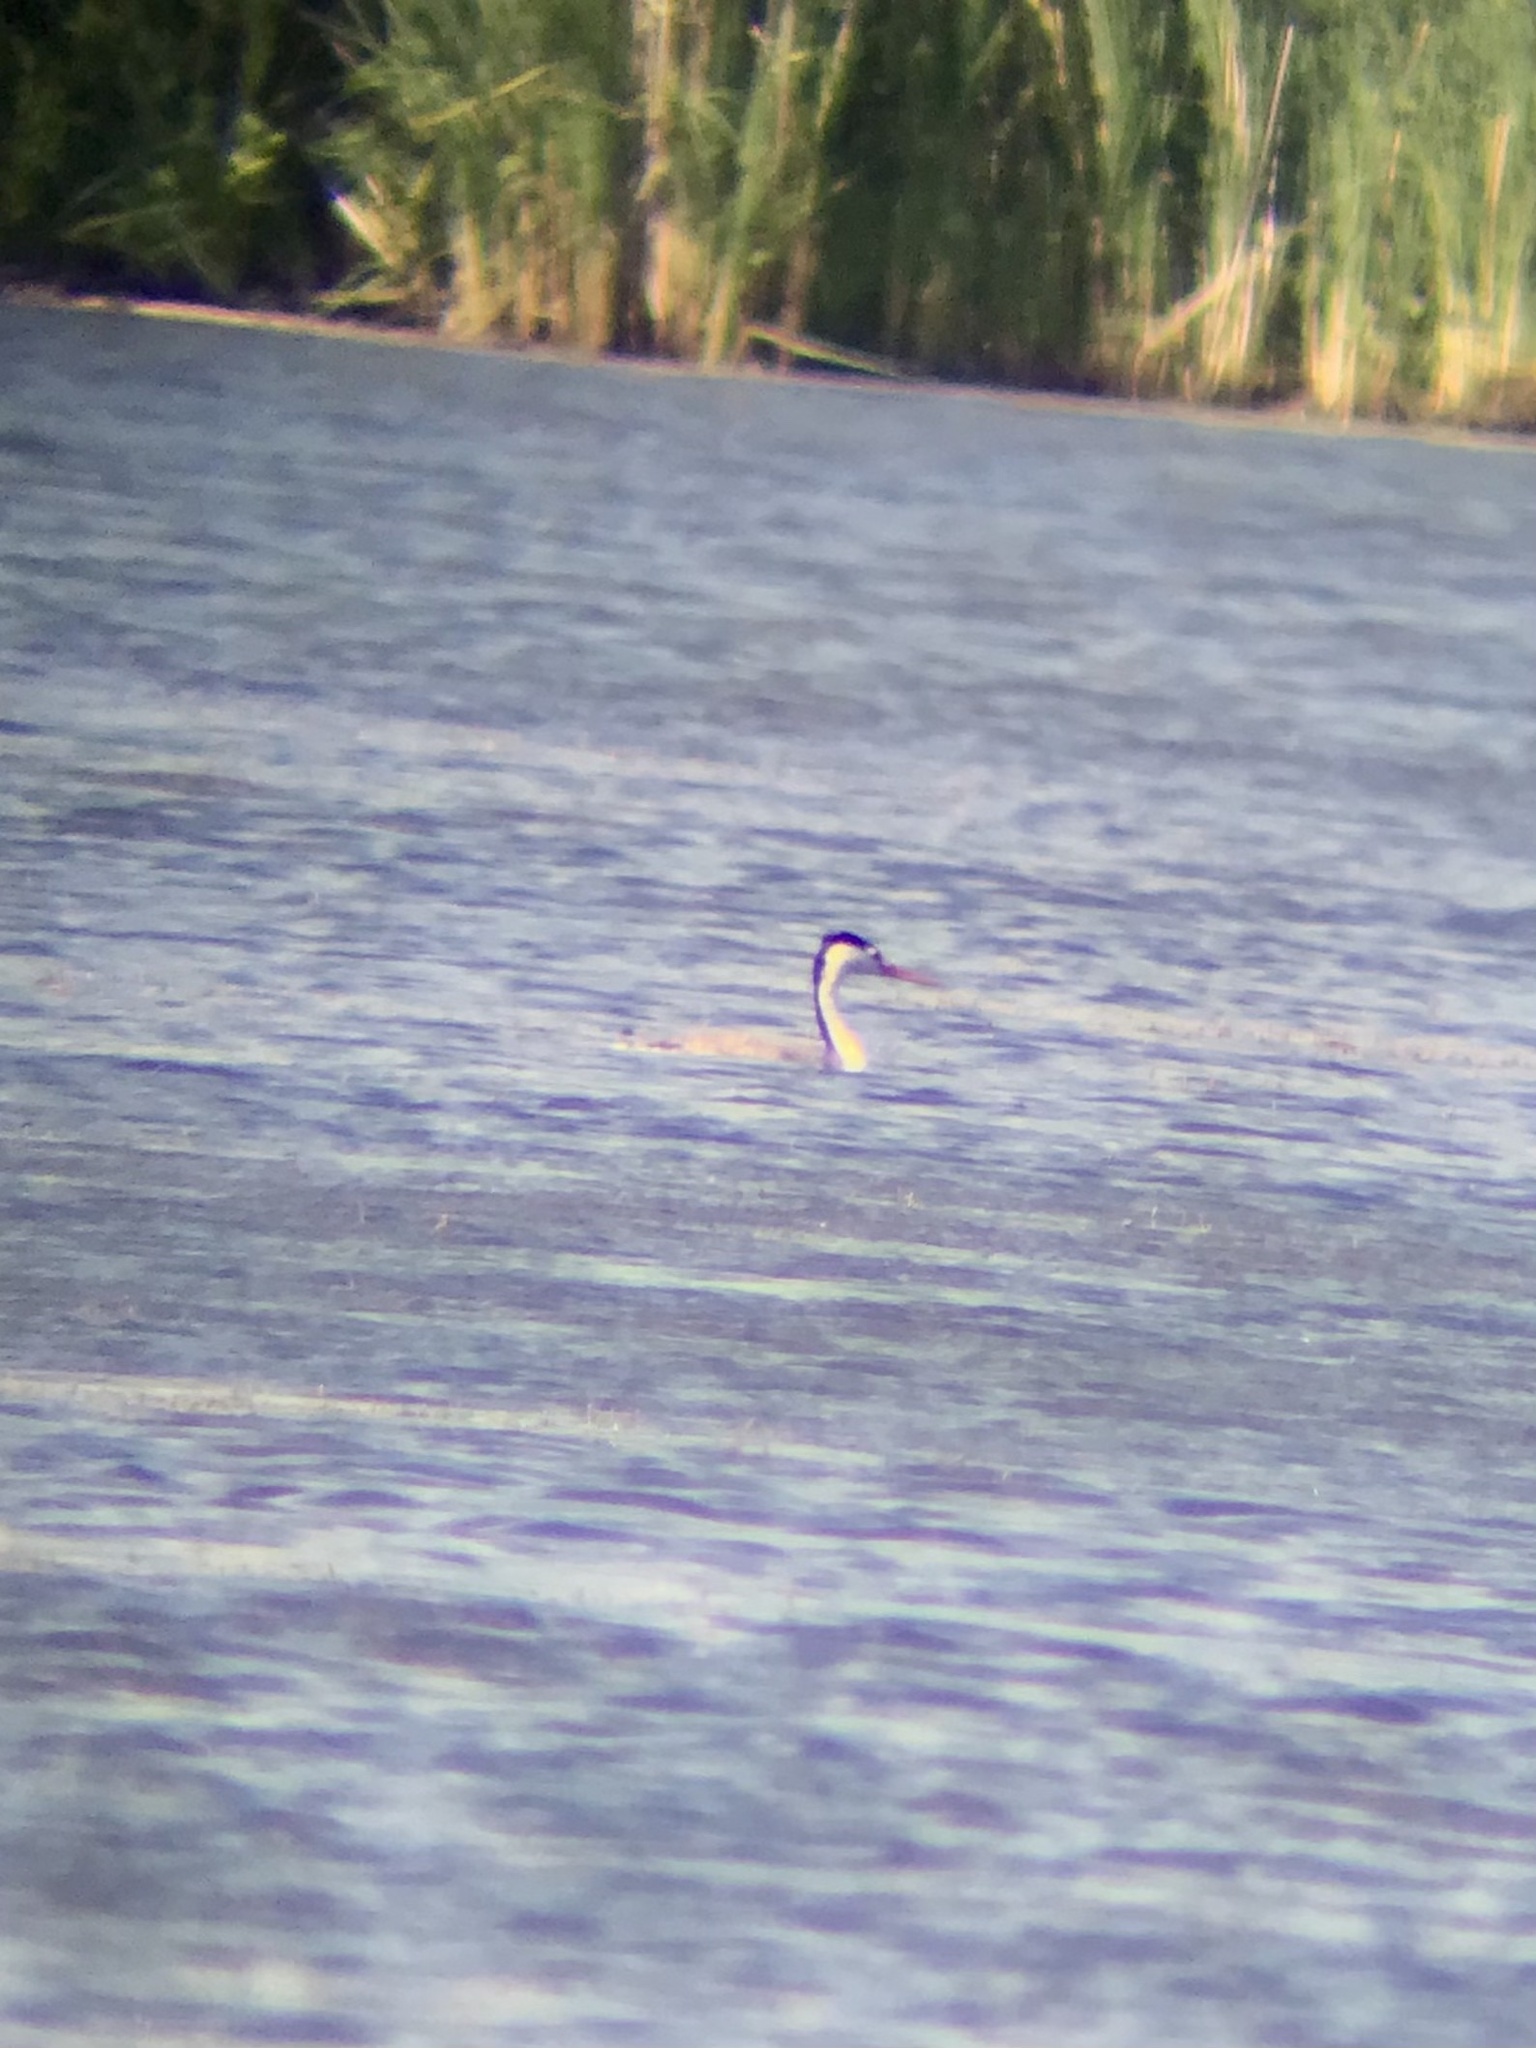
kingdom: Animalia
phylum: Chordata
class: Aves
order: Podicipediformes
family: Podicipedidae
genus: Aechmophorus
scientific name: Aechmophorus clarkii
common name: Clark's grebe
